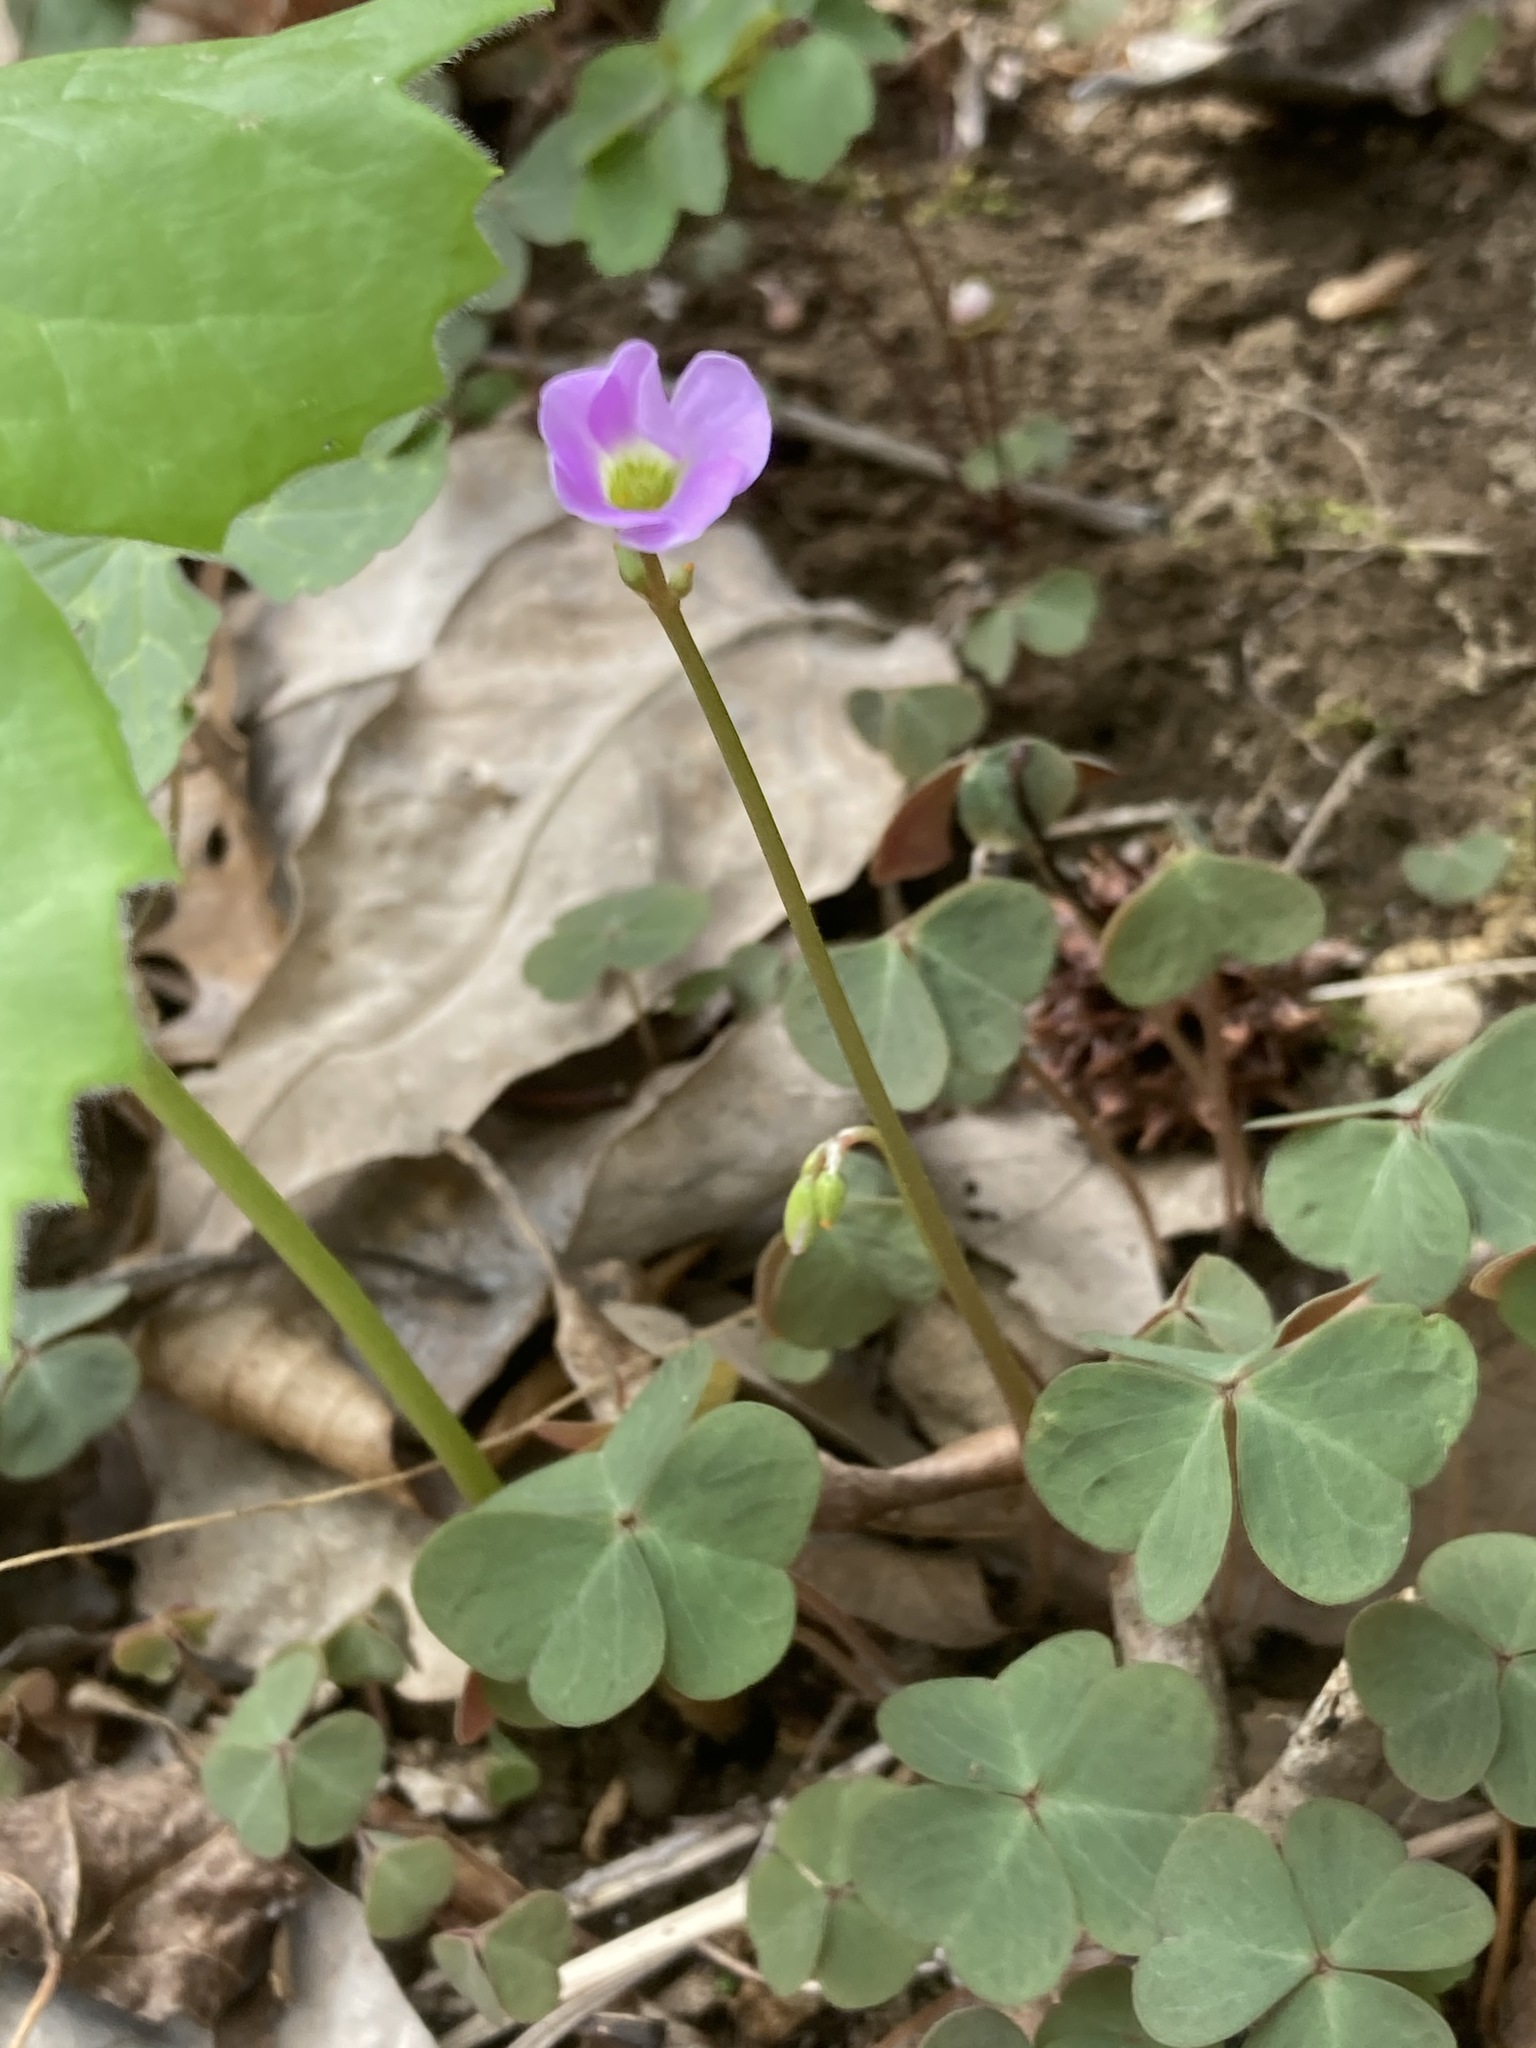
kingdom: Plantae
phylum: Tracheophyta
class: Magnoliopsida
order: Oxalidales
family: Oxalidaceae
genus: Oxalis
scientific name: Oxalis violacea
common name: Violet wood-sorrel
